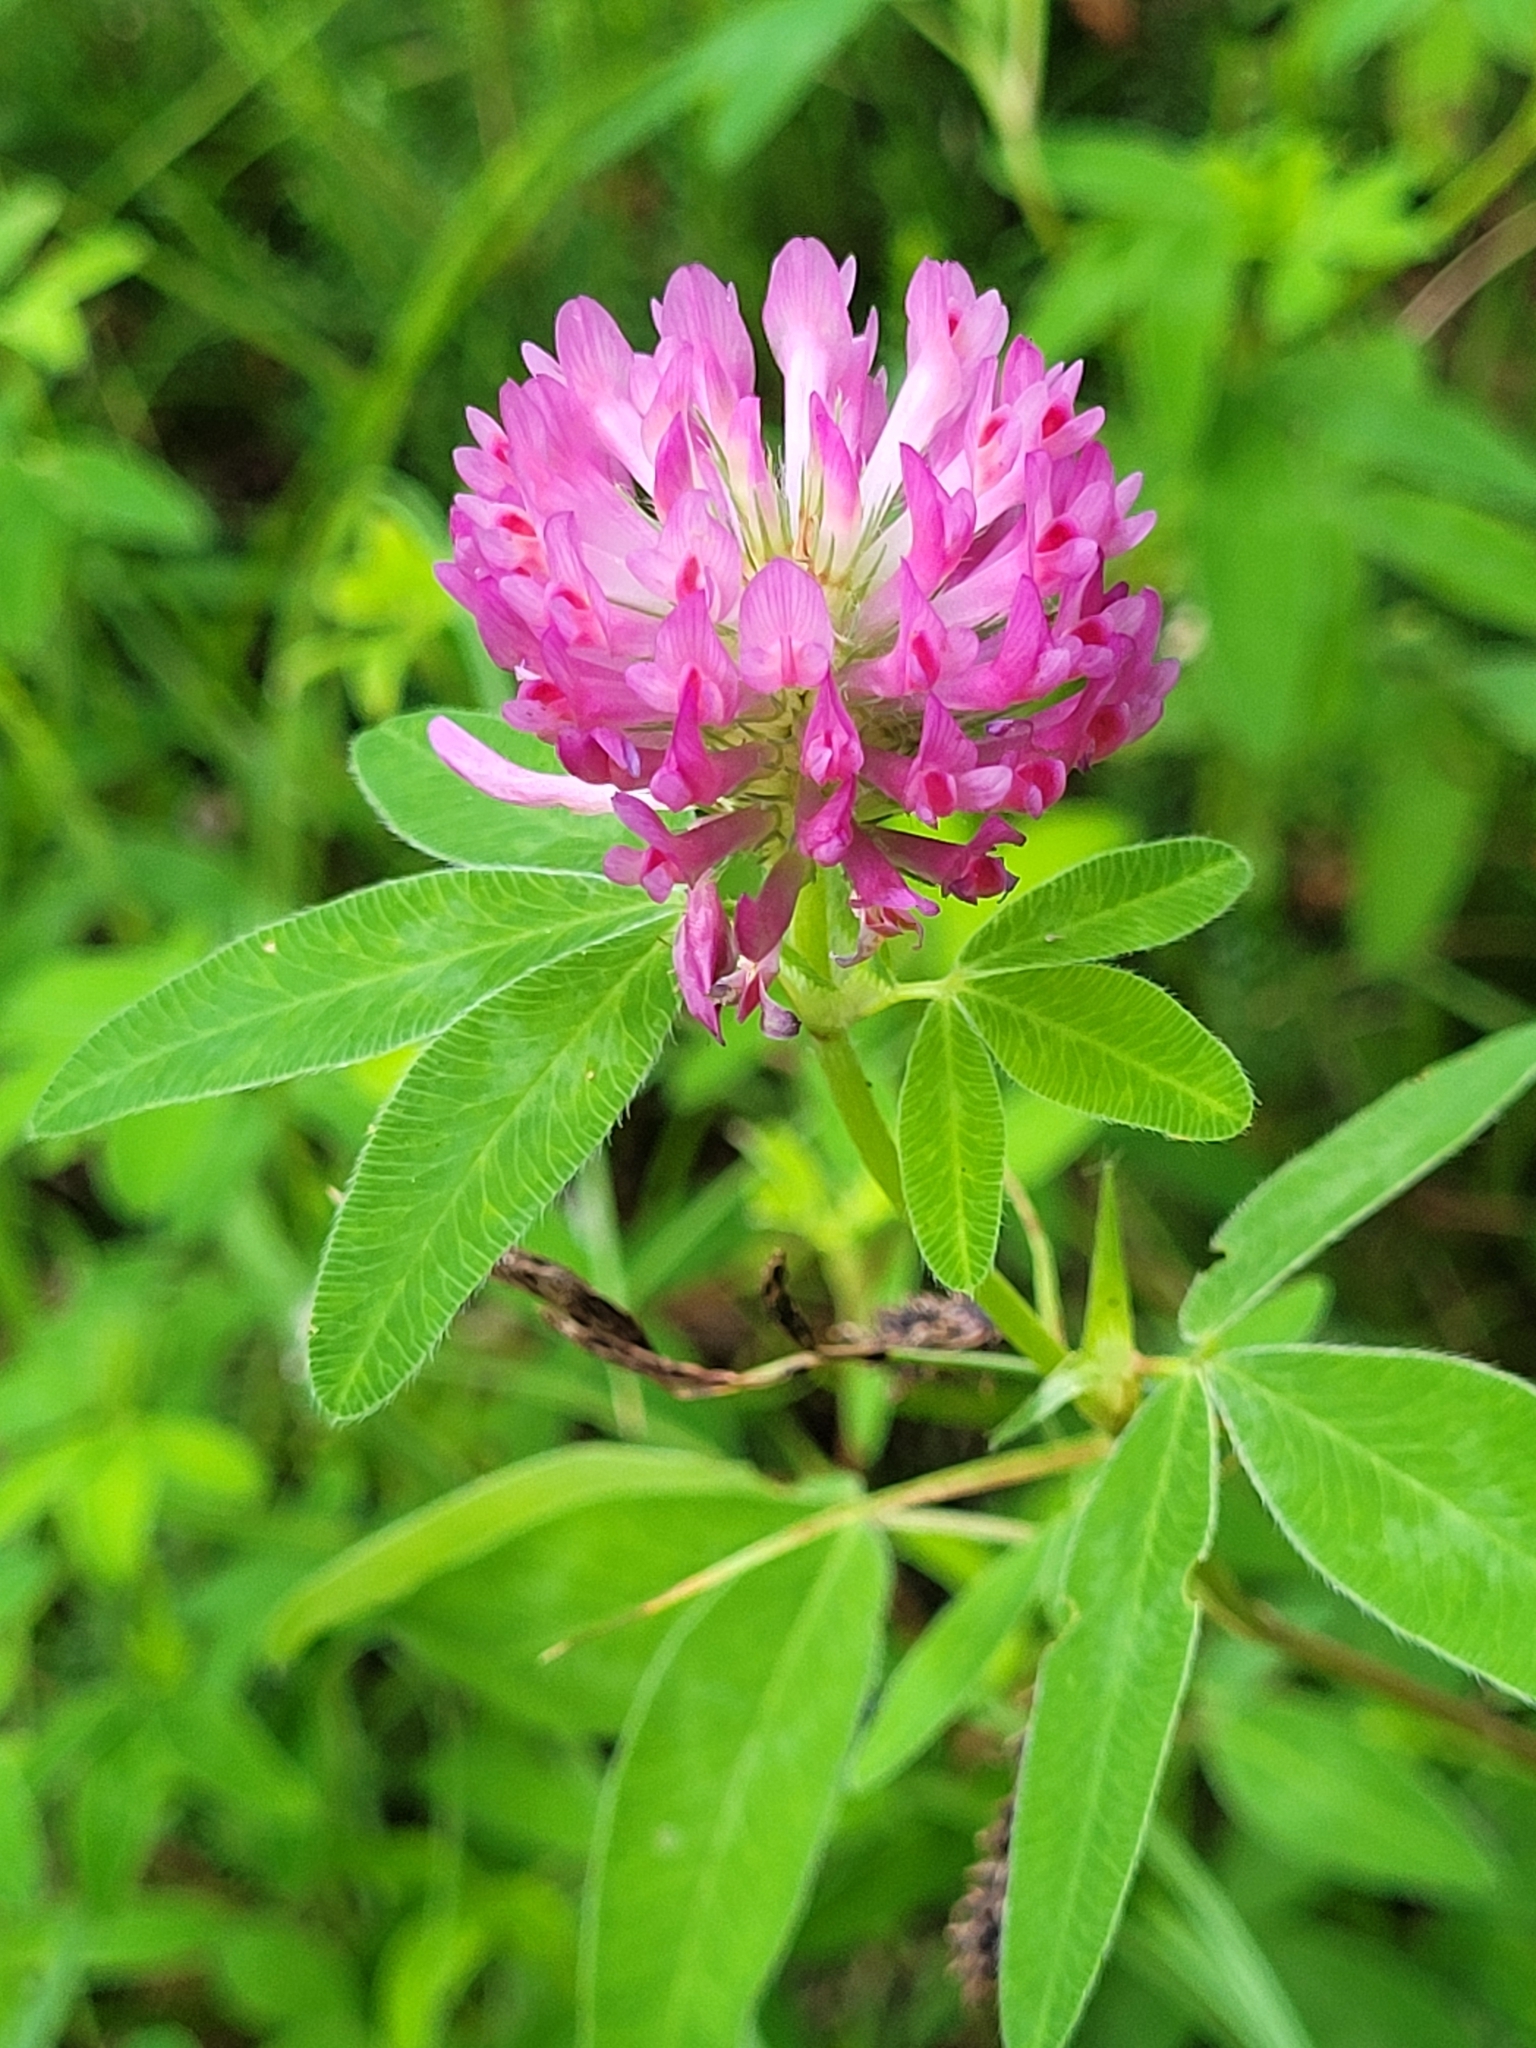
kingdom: Plantae
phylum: Tracheophyta
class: Magnoliopsida
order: Fabales
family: Fabaceae
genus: Trifolium
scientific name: Trifolium medium
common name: Zigzag clover
